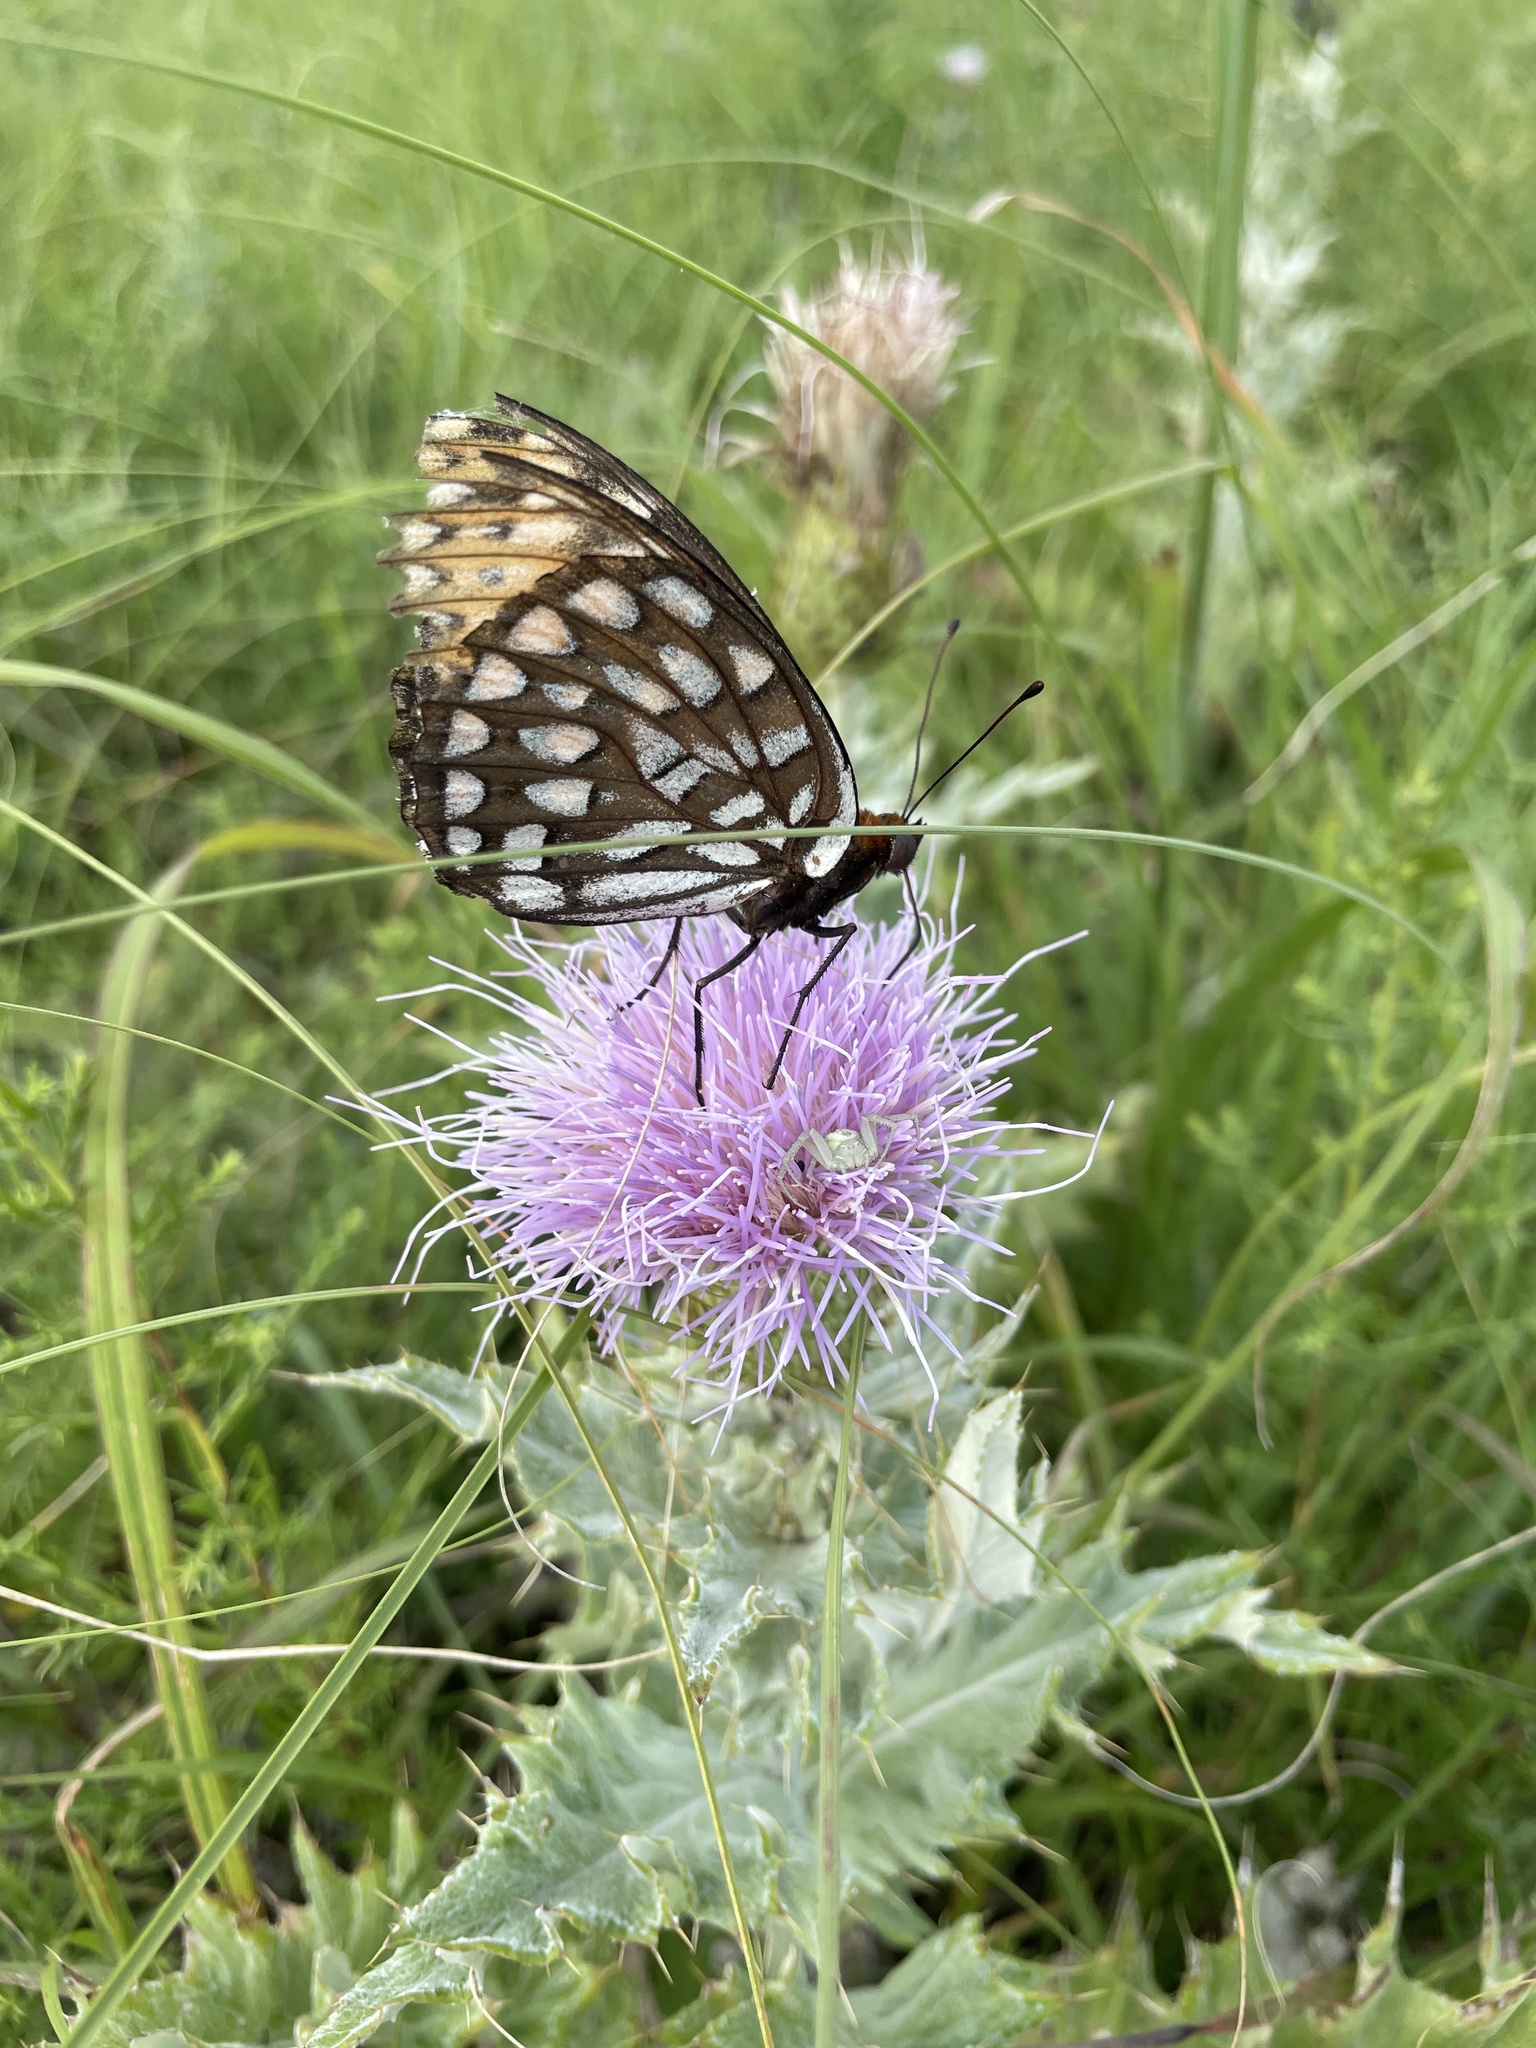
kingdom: Animalia
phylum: Arthropoda
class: Insecta
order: Lepidoptera
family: Nymphalidae
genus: Speyeria
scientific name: Speyeria idalia
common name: Regal fritillary
